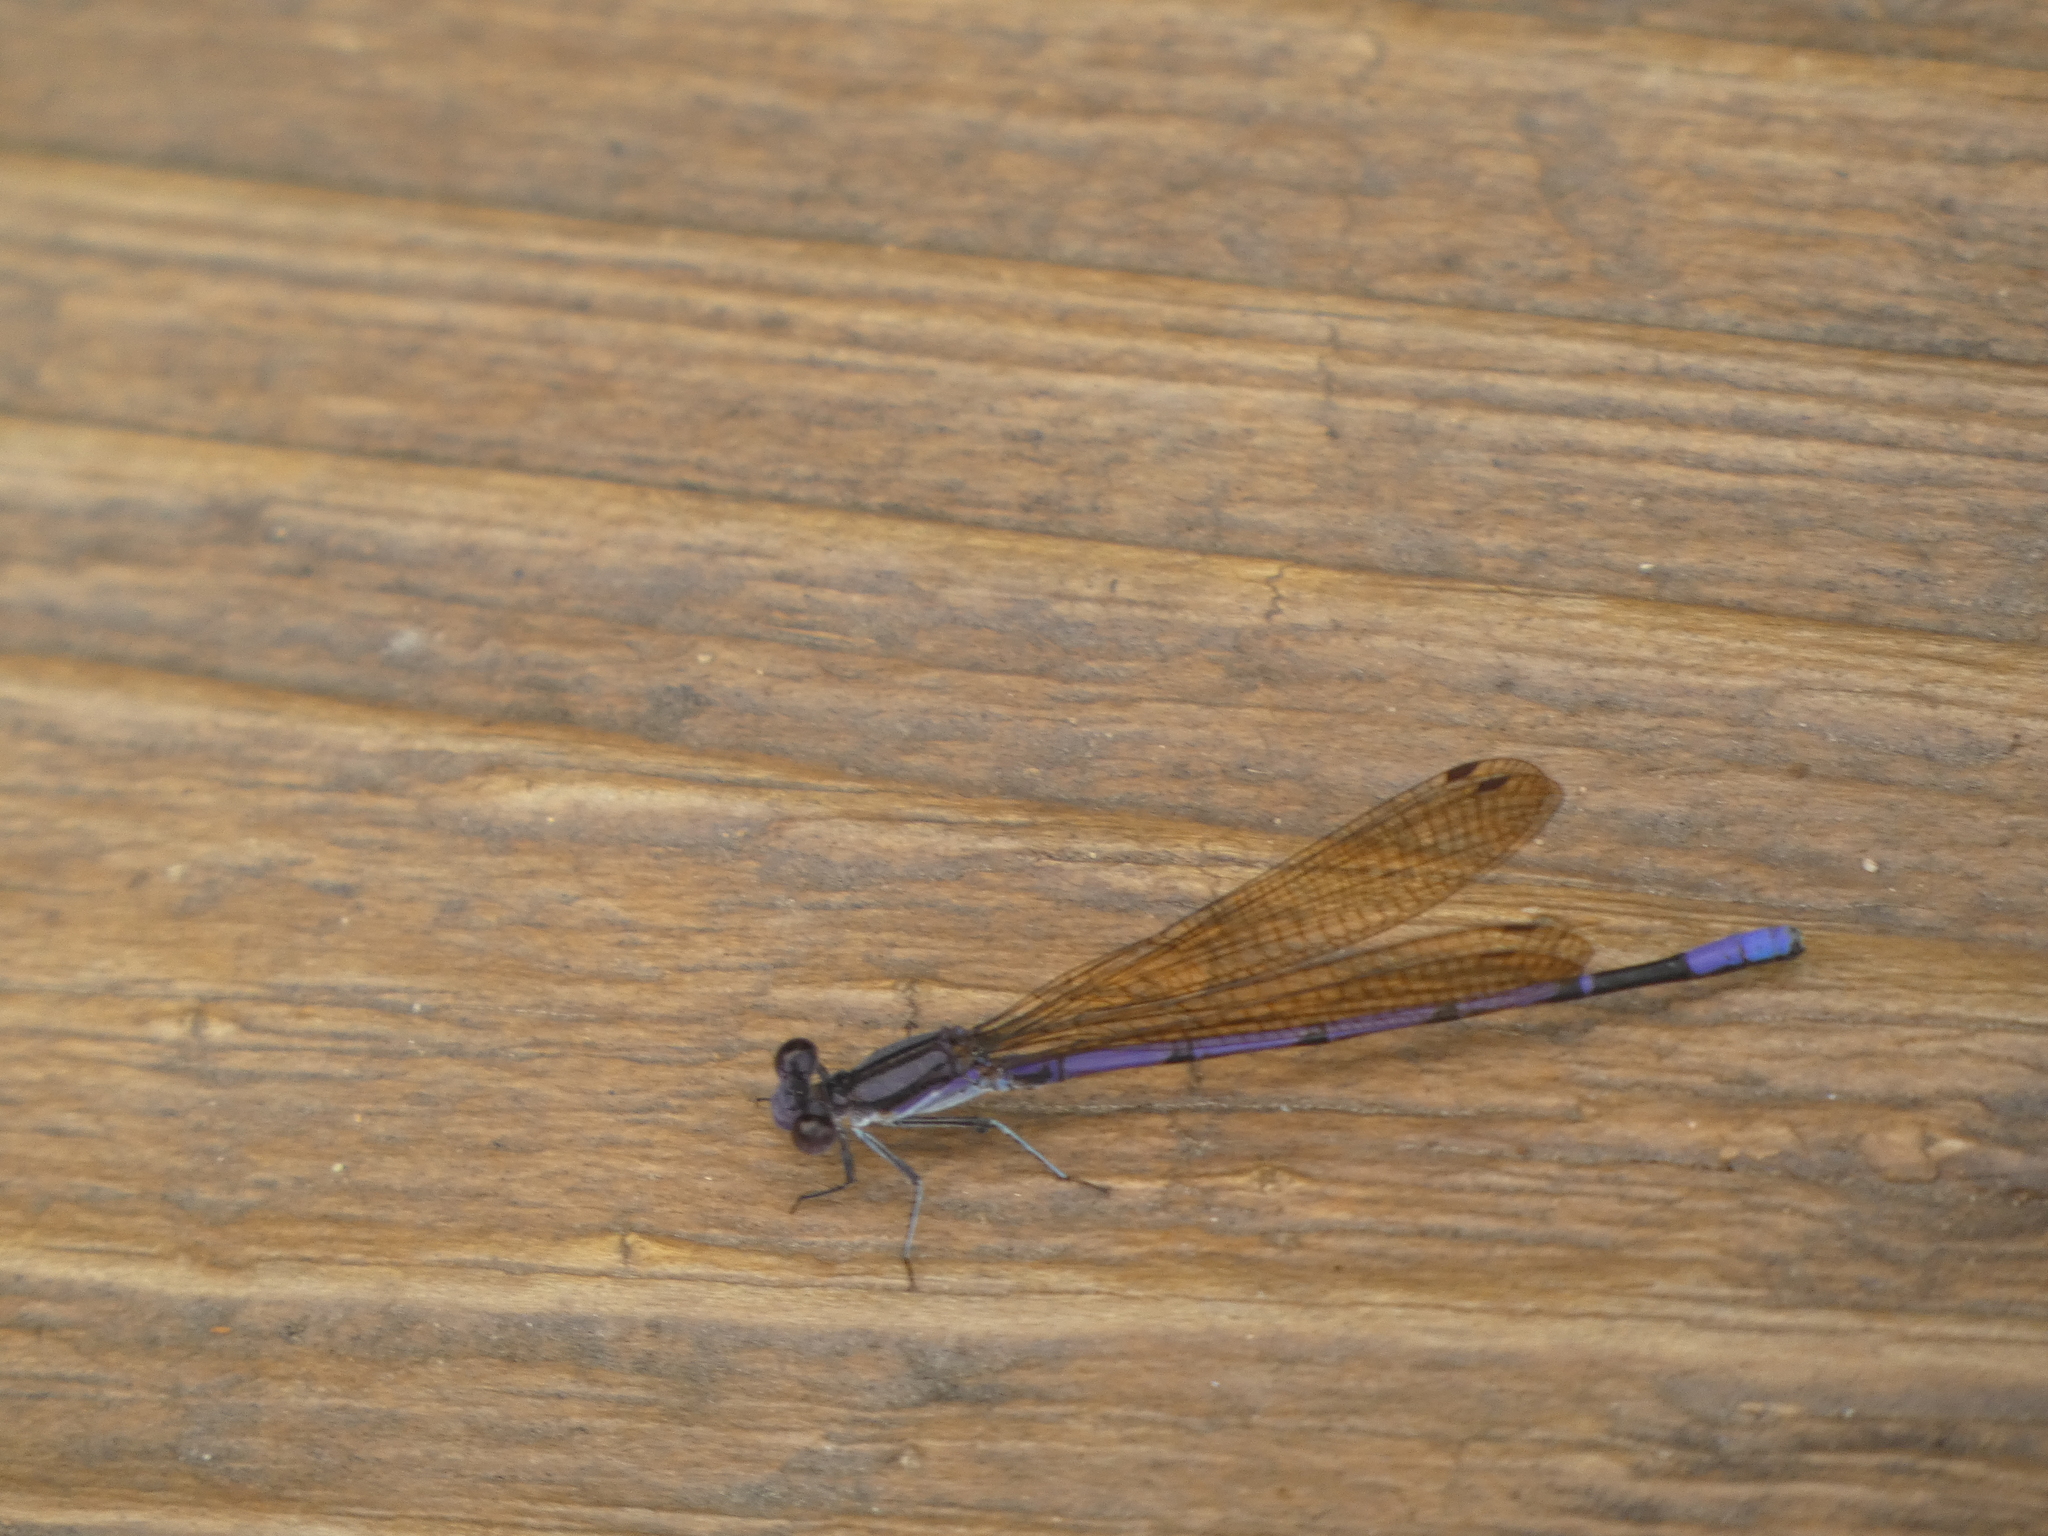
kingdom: Animalia
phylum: Arthropoda
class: Insecta
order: Odonata
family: Coenagrionidae
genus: Argia
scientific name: Argia fumipennis
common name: Variable dancer
